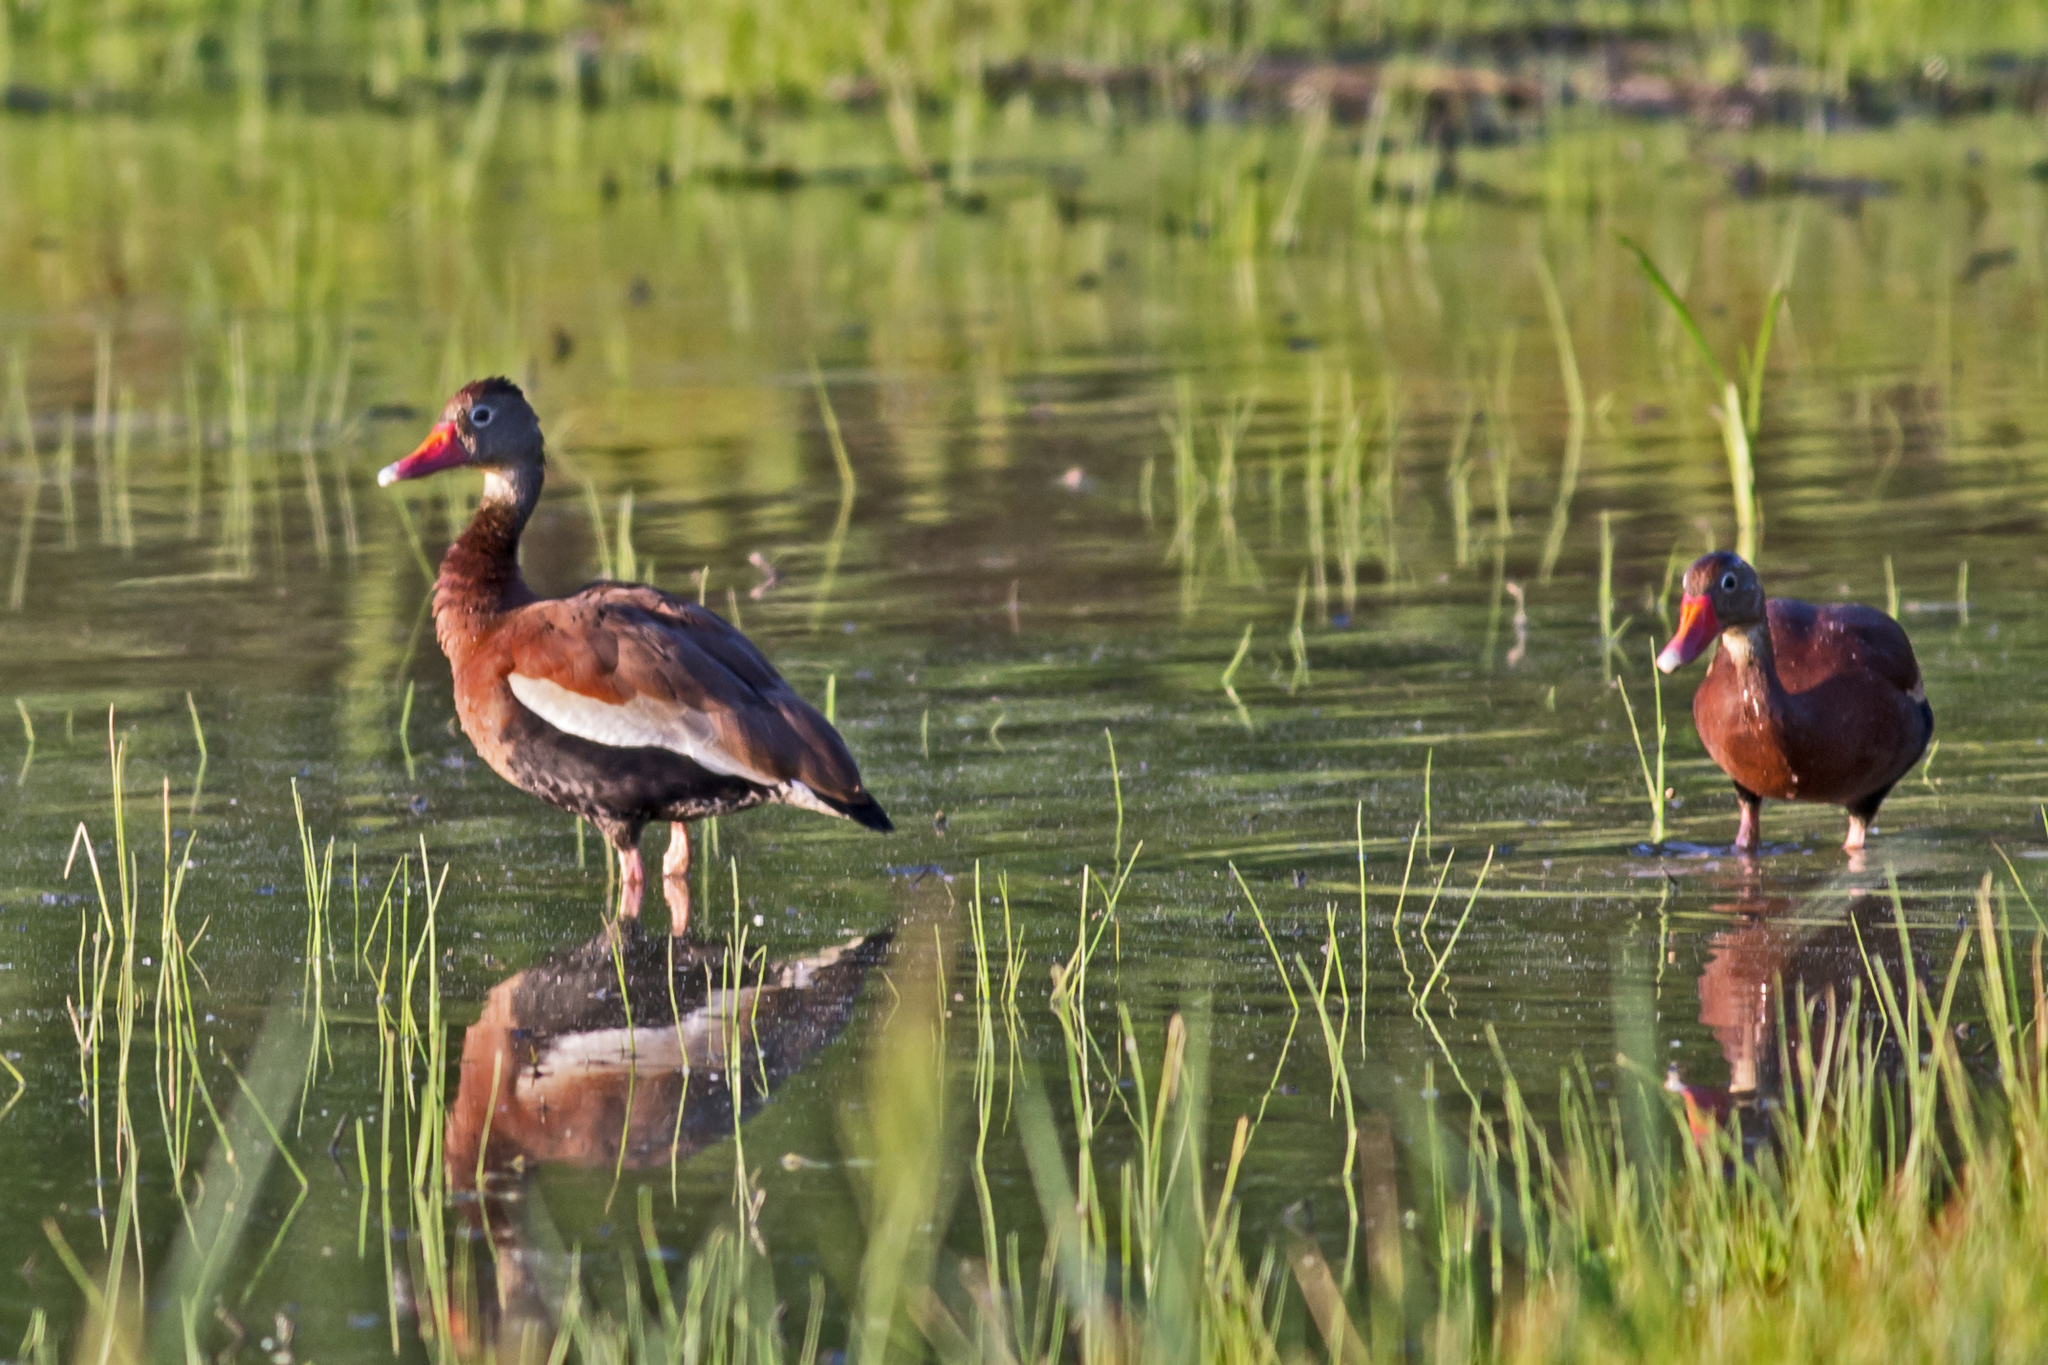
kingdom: Animalia
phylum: Chordata
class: Aves
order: Anseriformes
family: Anatidae
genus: Dendrocygna
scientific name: Dendrocygna autumnalis
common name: Black-bellied whistling duck
